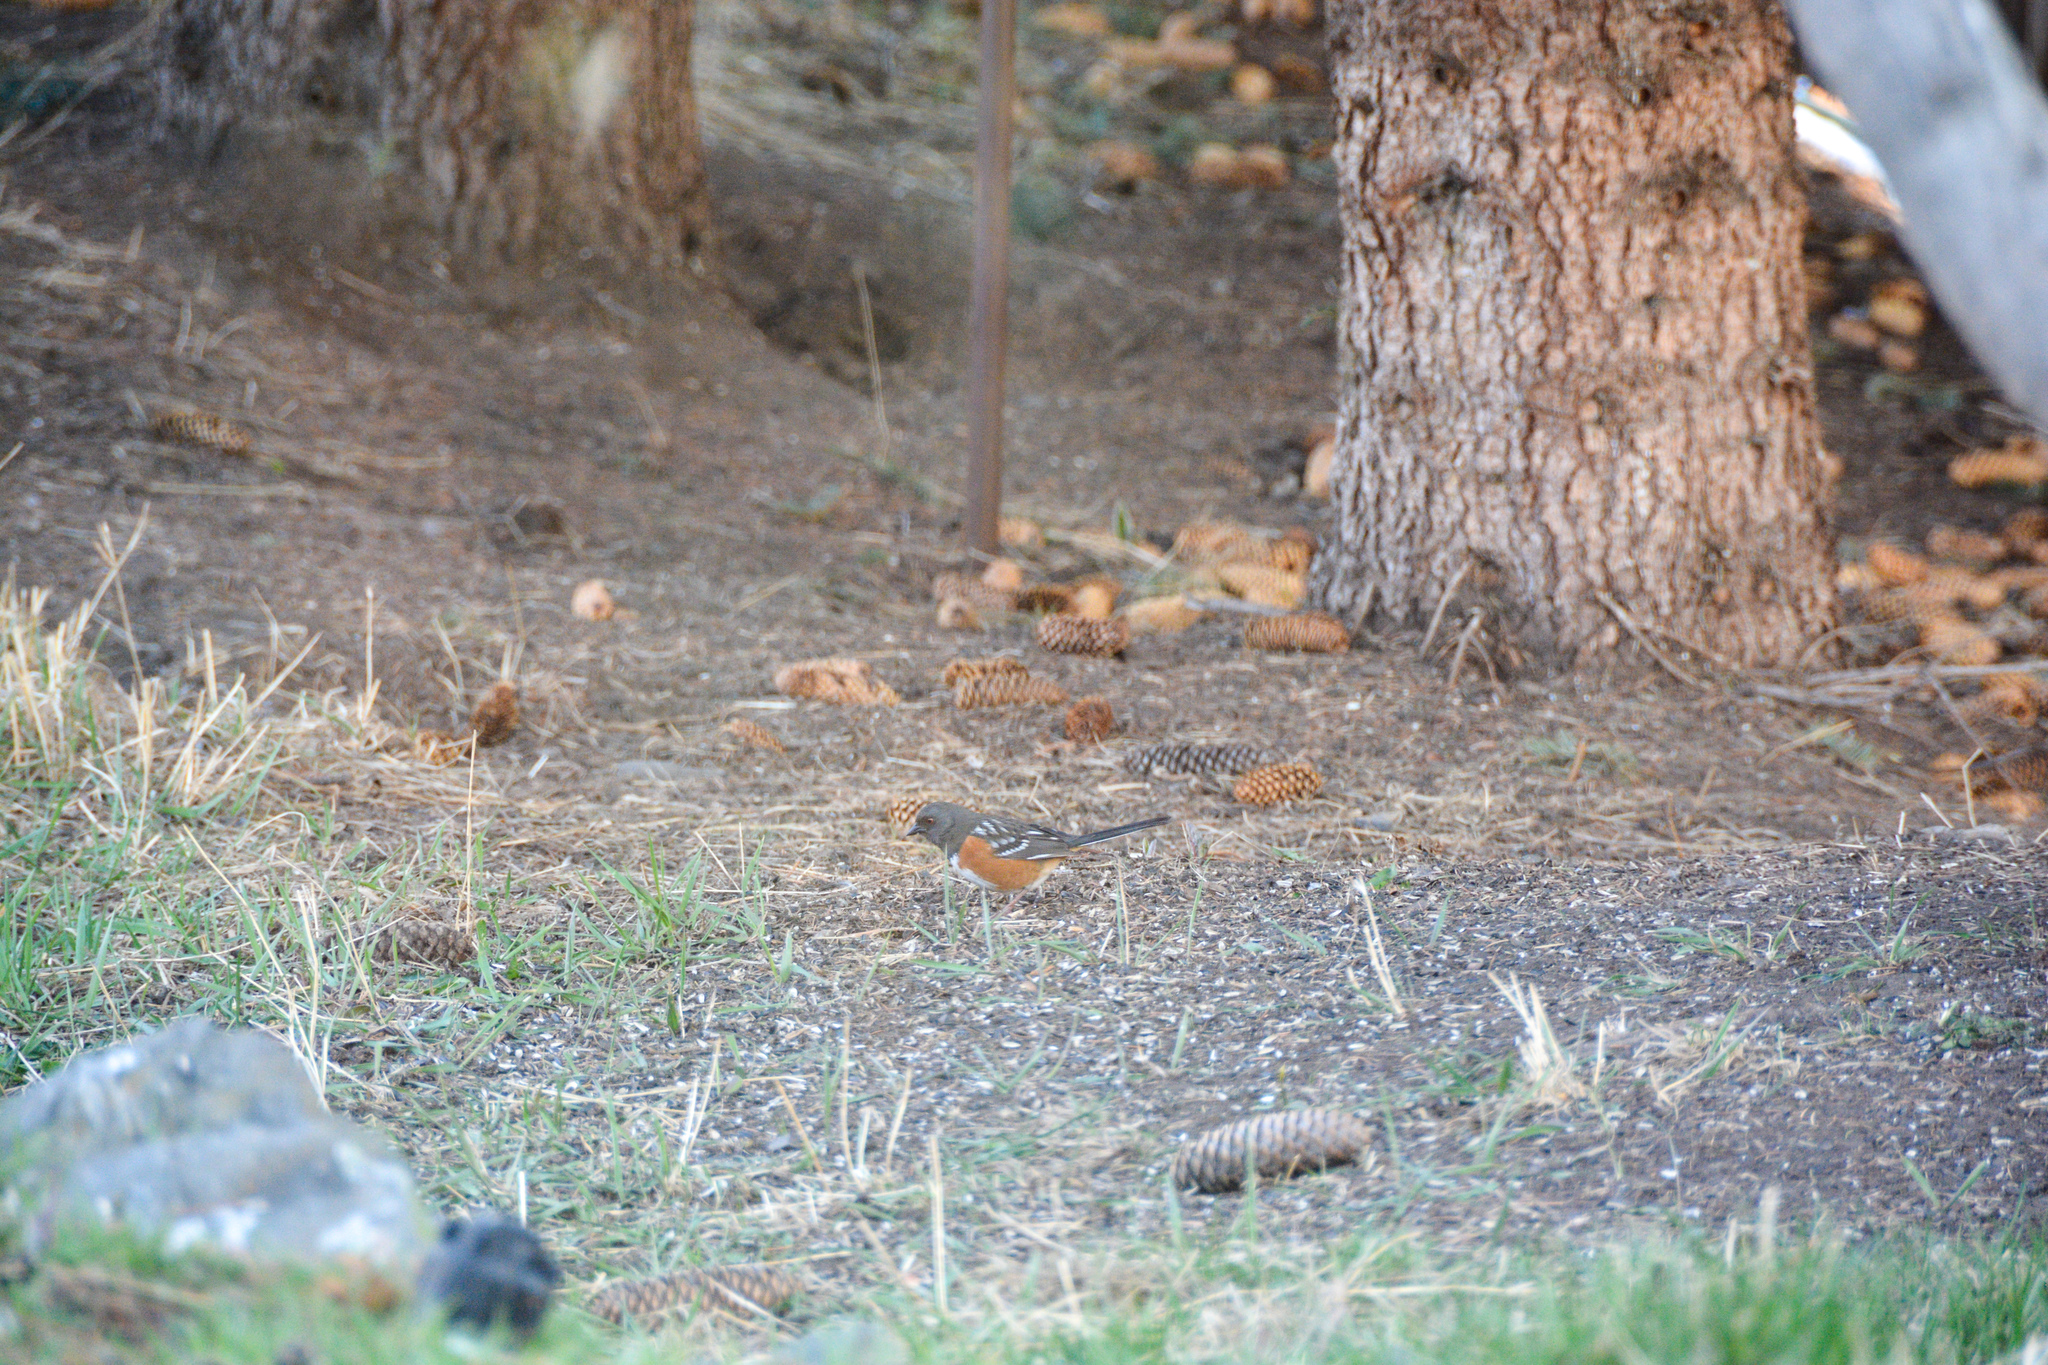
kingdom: Animalia
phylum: Chordata
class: Aves
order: Passeriformes
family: Passerellidae
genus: Pipilo
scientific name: Pipilo maculatus
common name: Spotted towhee
